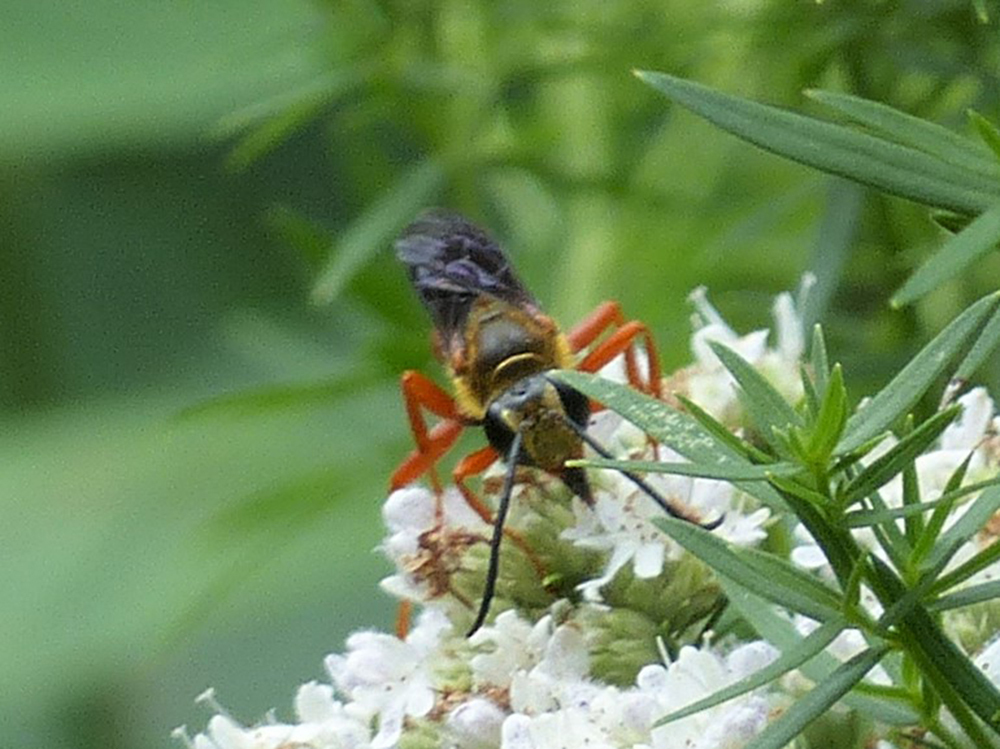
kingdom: Animalia
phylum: Arthropoda
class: Insecta
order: Hymenoptera
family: Sphecidae
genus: Sphex
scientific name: Sphex ichneumoneus
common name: Great golden digger wasp
